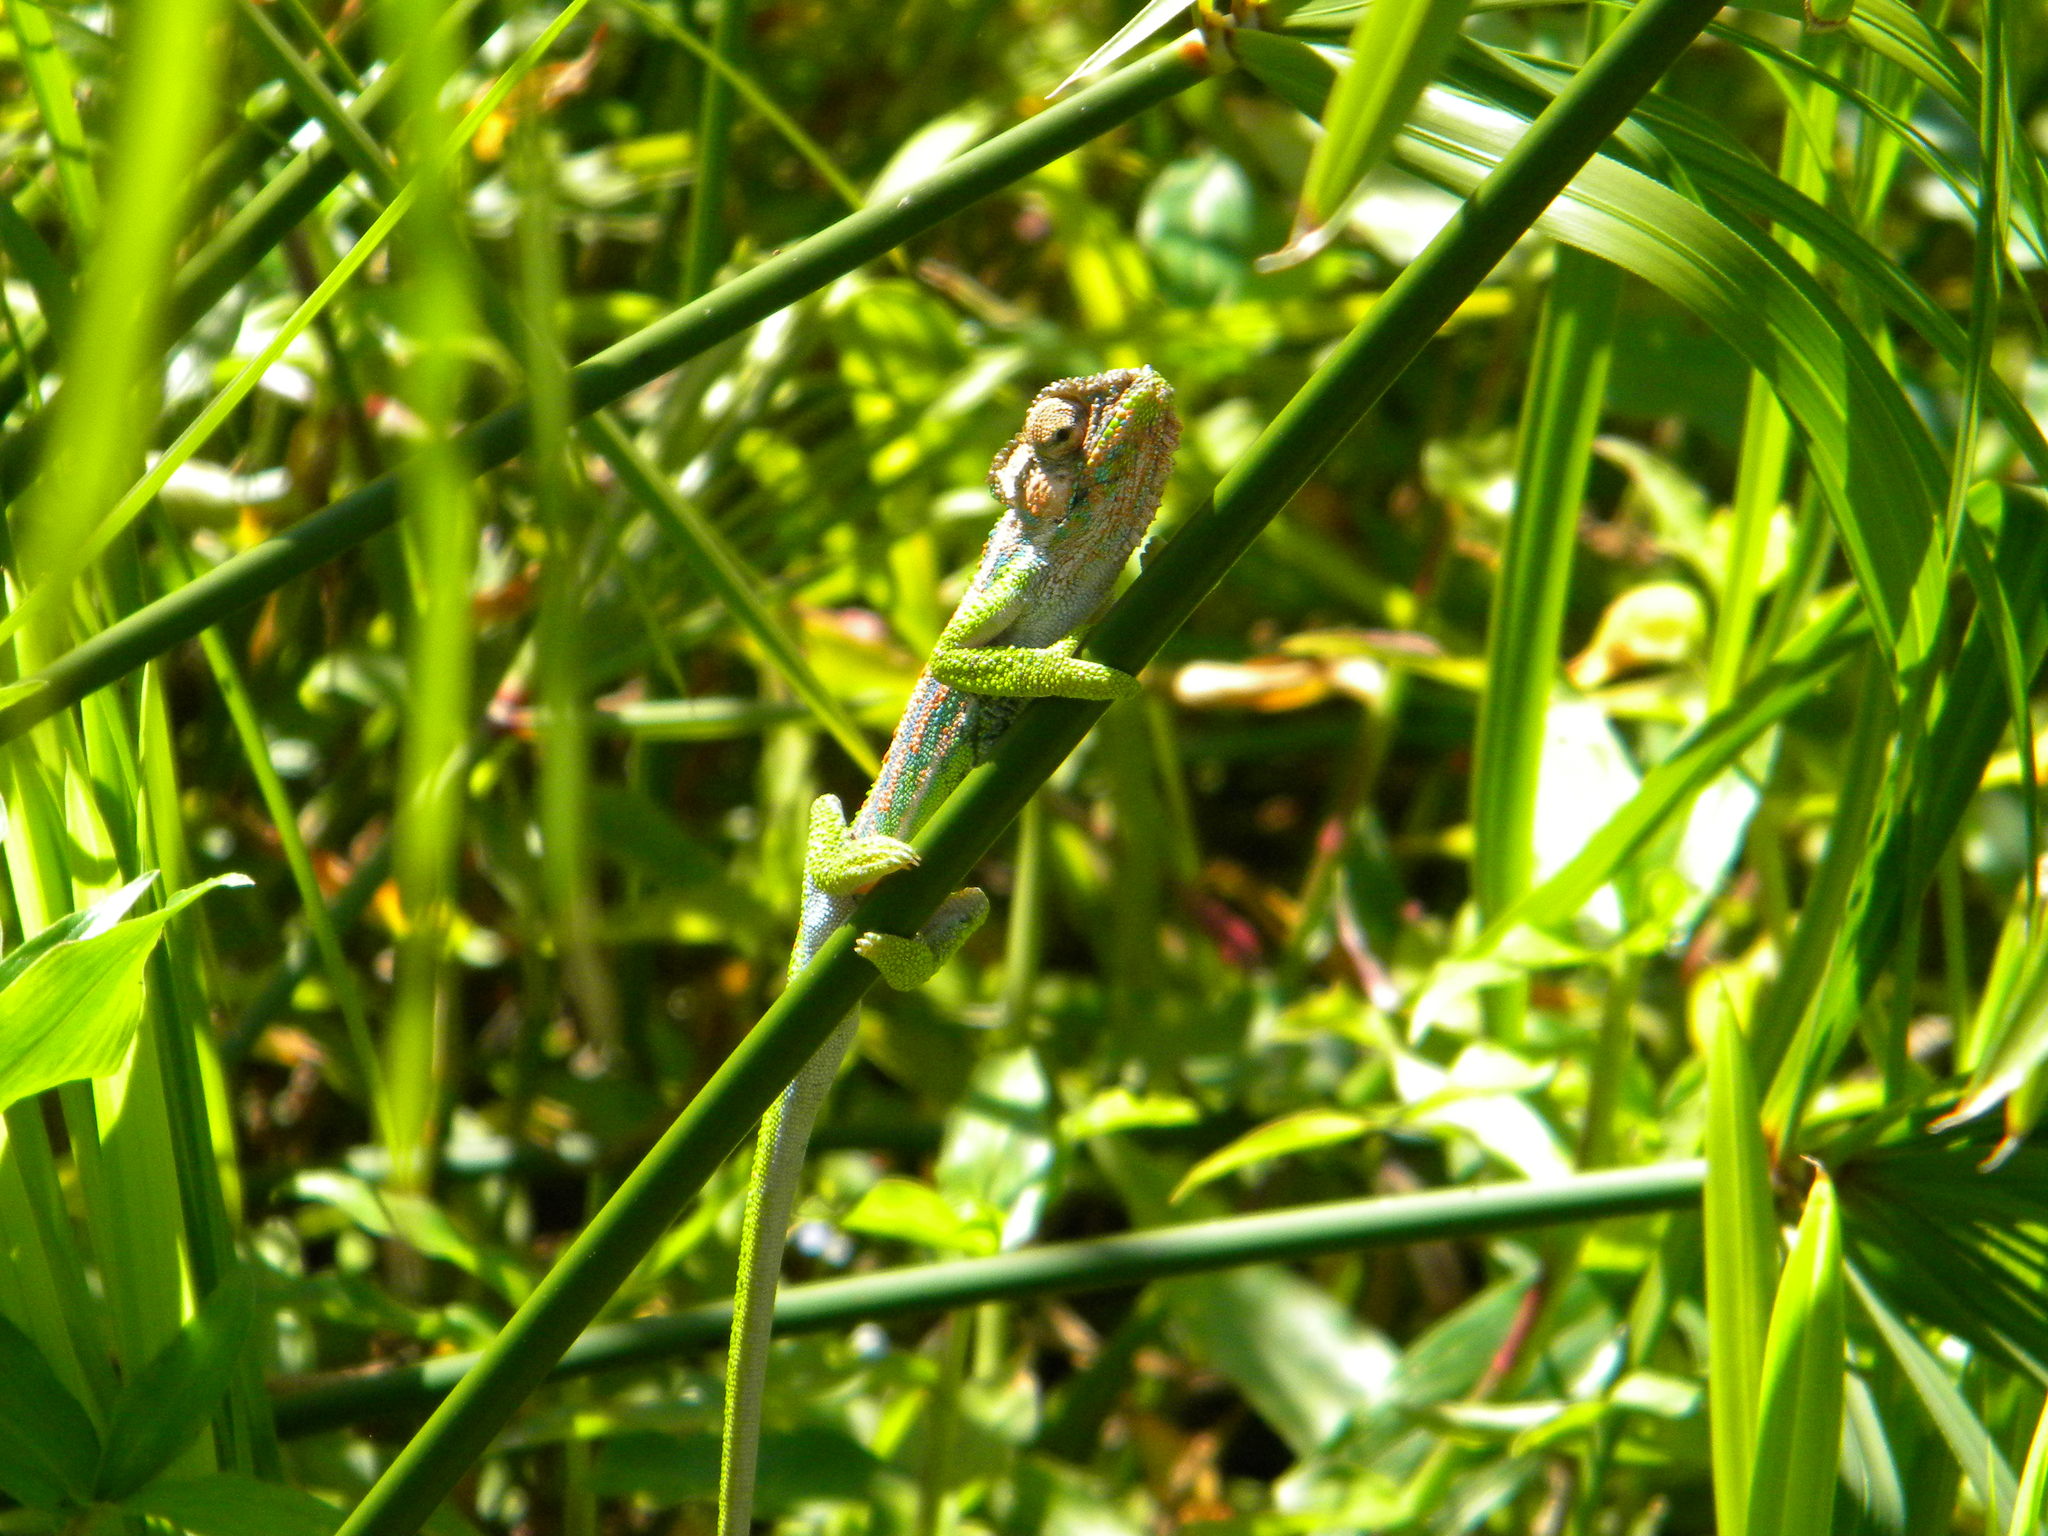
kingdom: Animalia
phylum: Chordata
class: Squamata
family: Chamaeleonidae
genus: Bradypodion
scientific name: Bradypodion pumilum
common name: Cape dwarf chameleon
